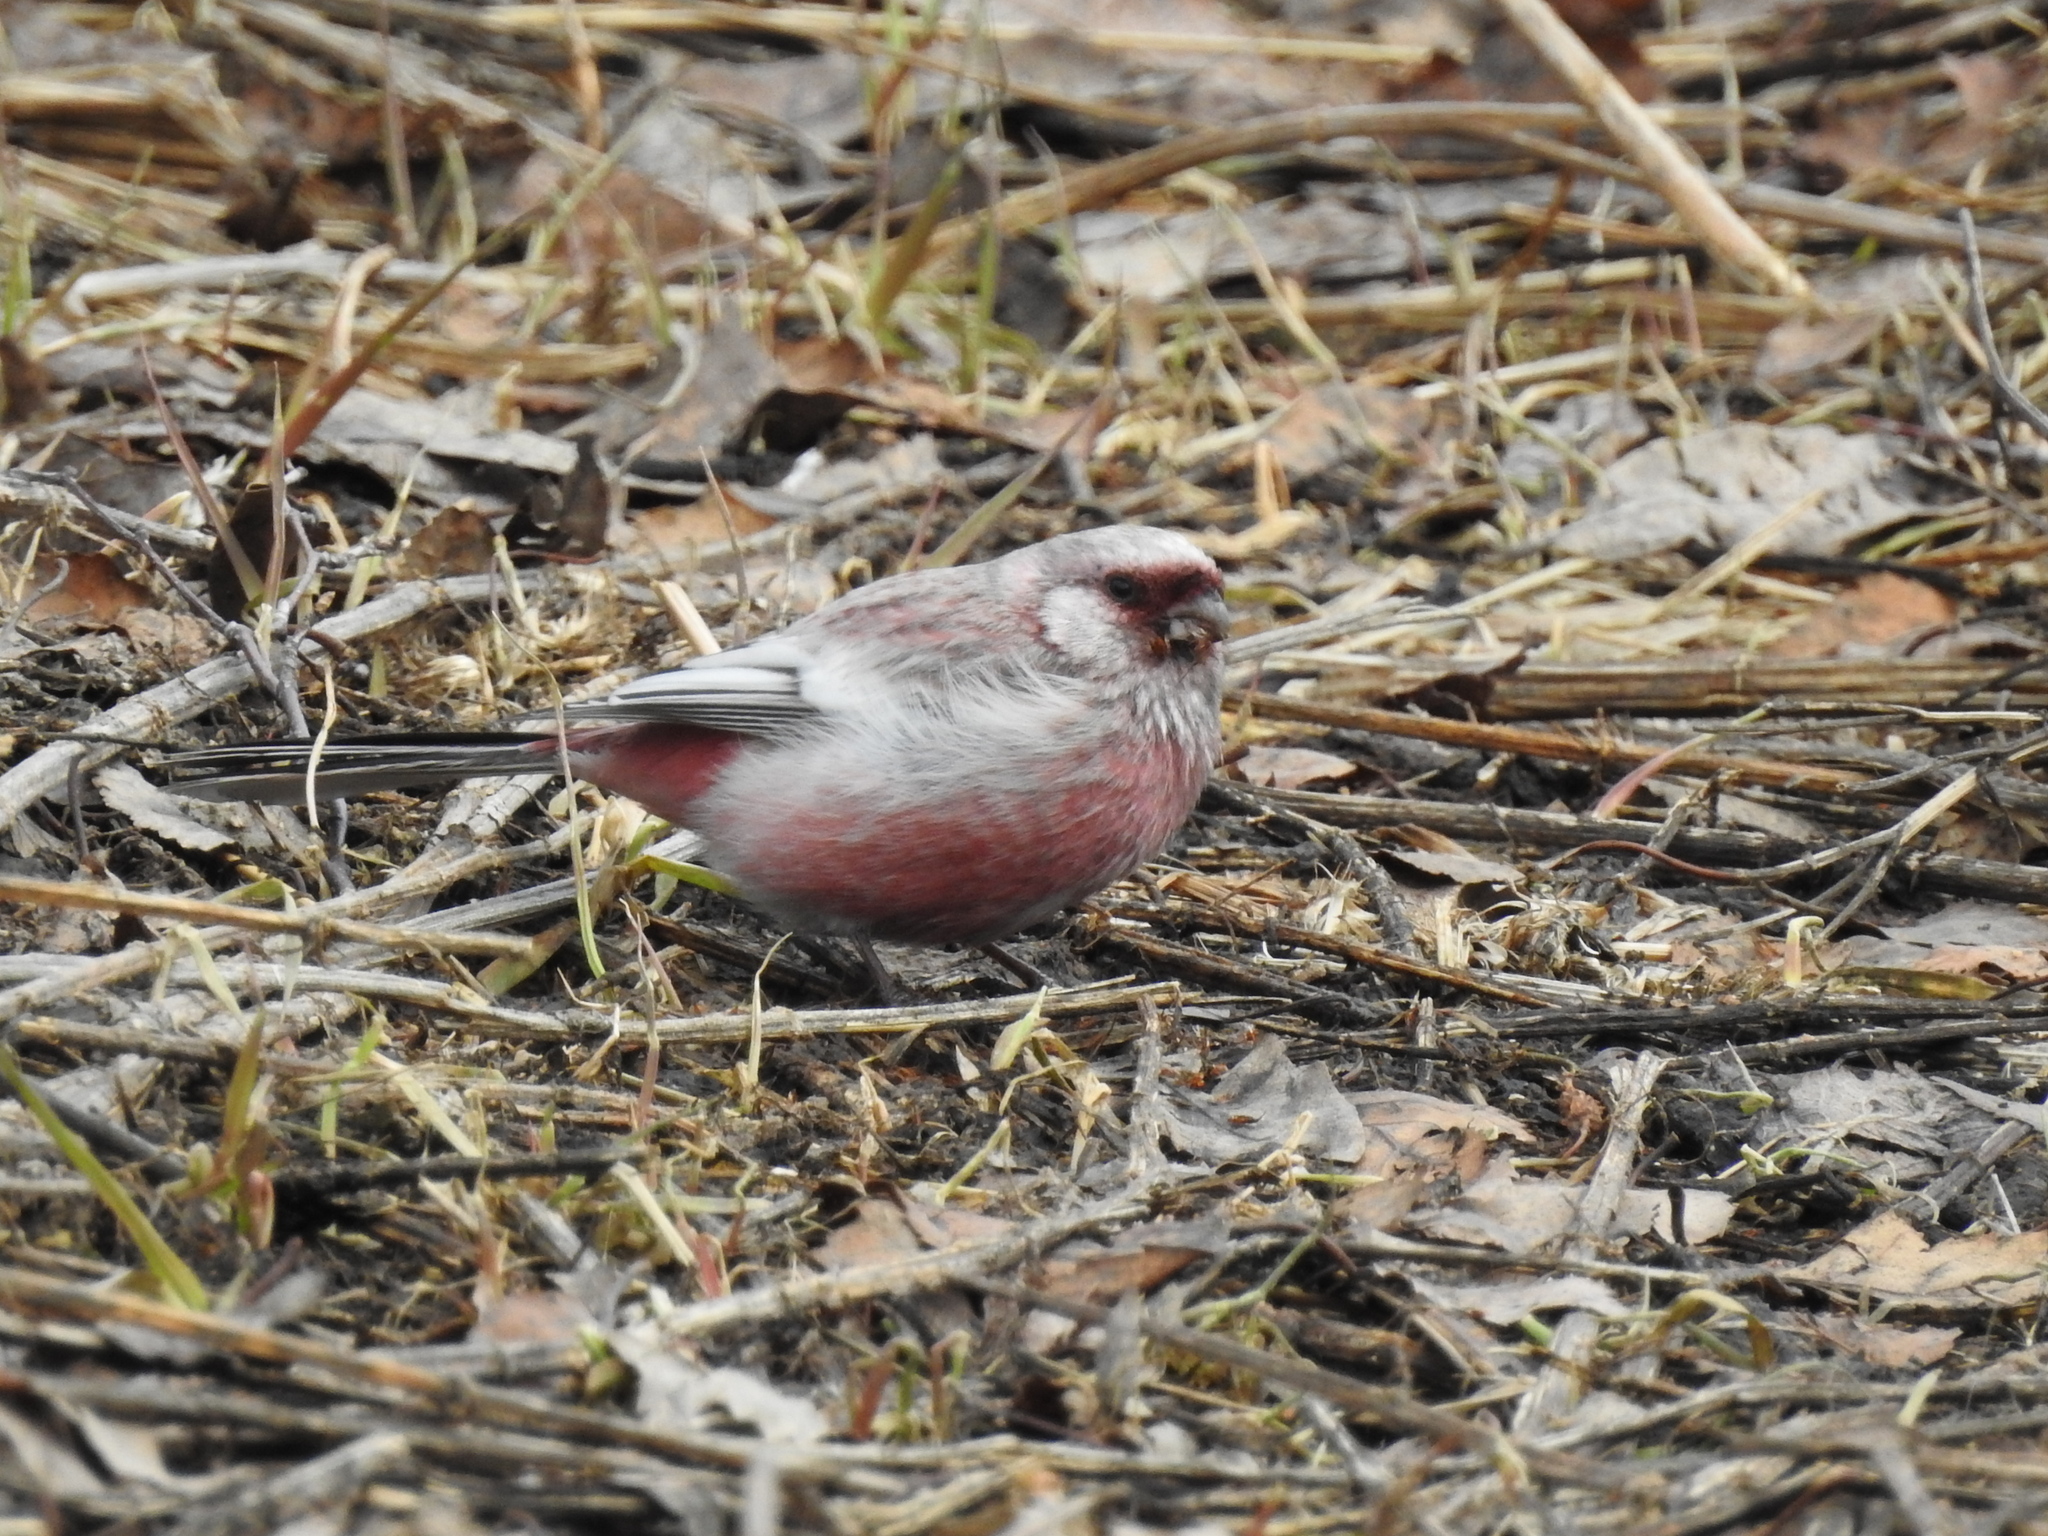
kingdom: Animalia
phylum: Chordata
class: Aves
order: Passeriformes
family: Fringillidae
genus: Carpodacus
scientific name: Carpodacus sibiricus
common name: Long-tailed rosefinch
